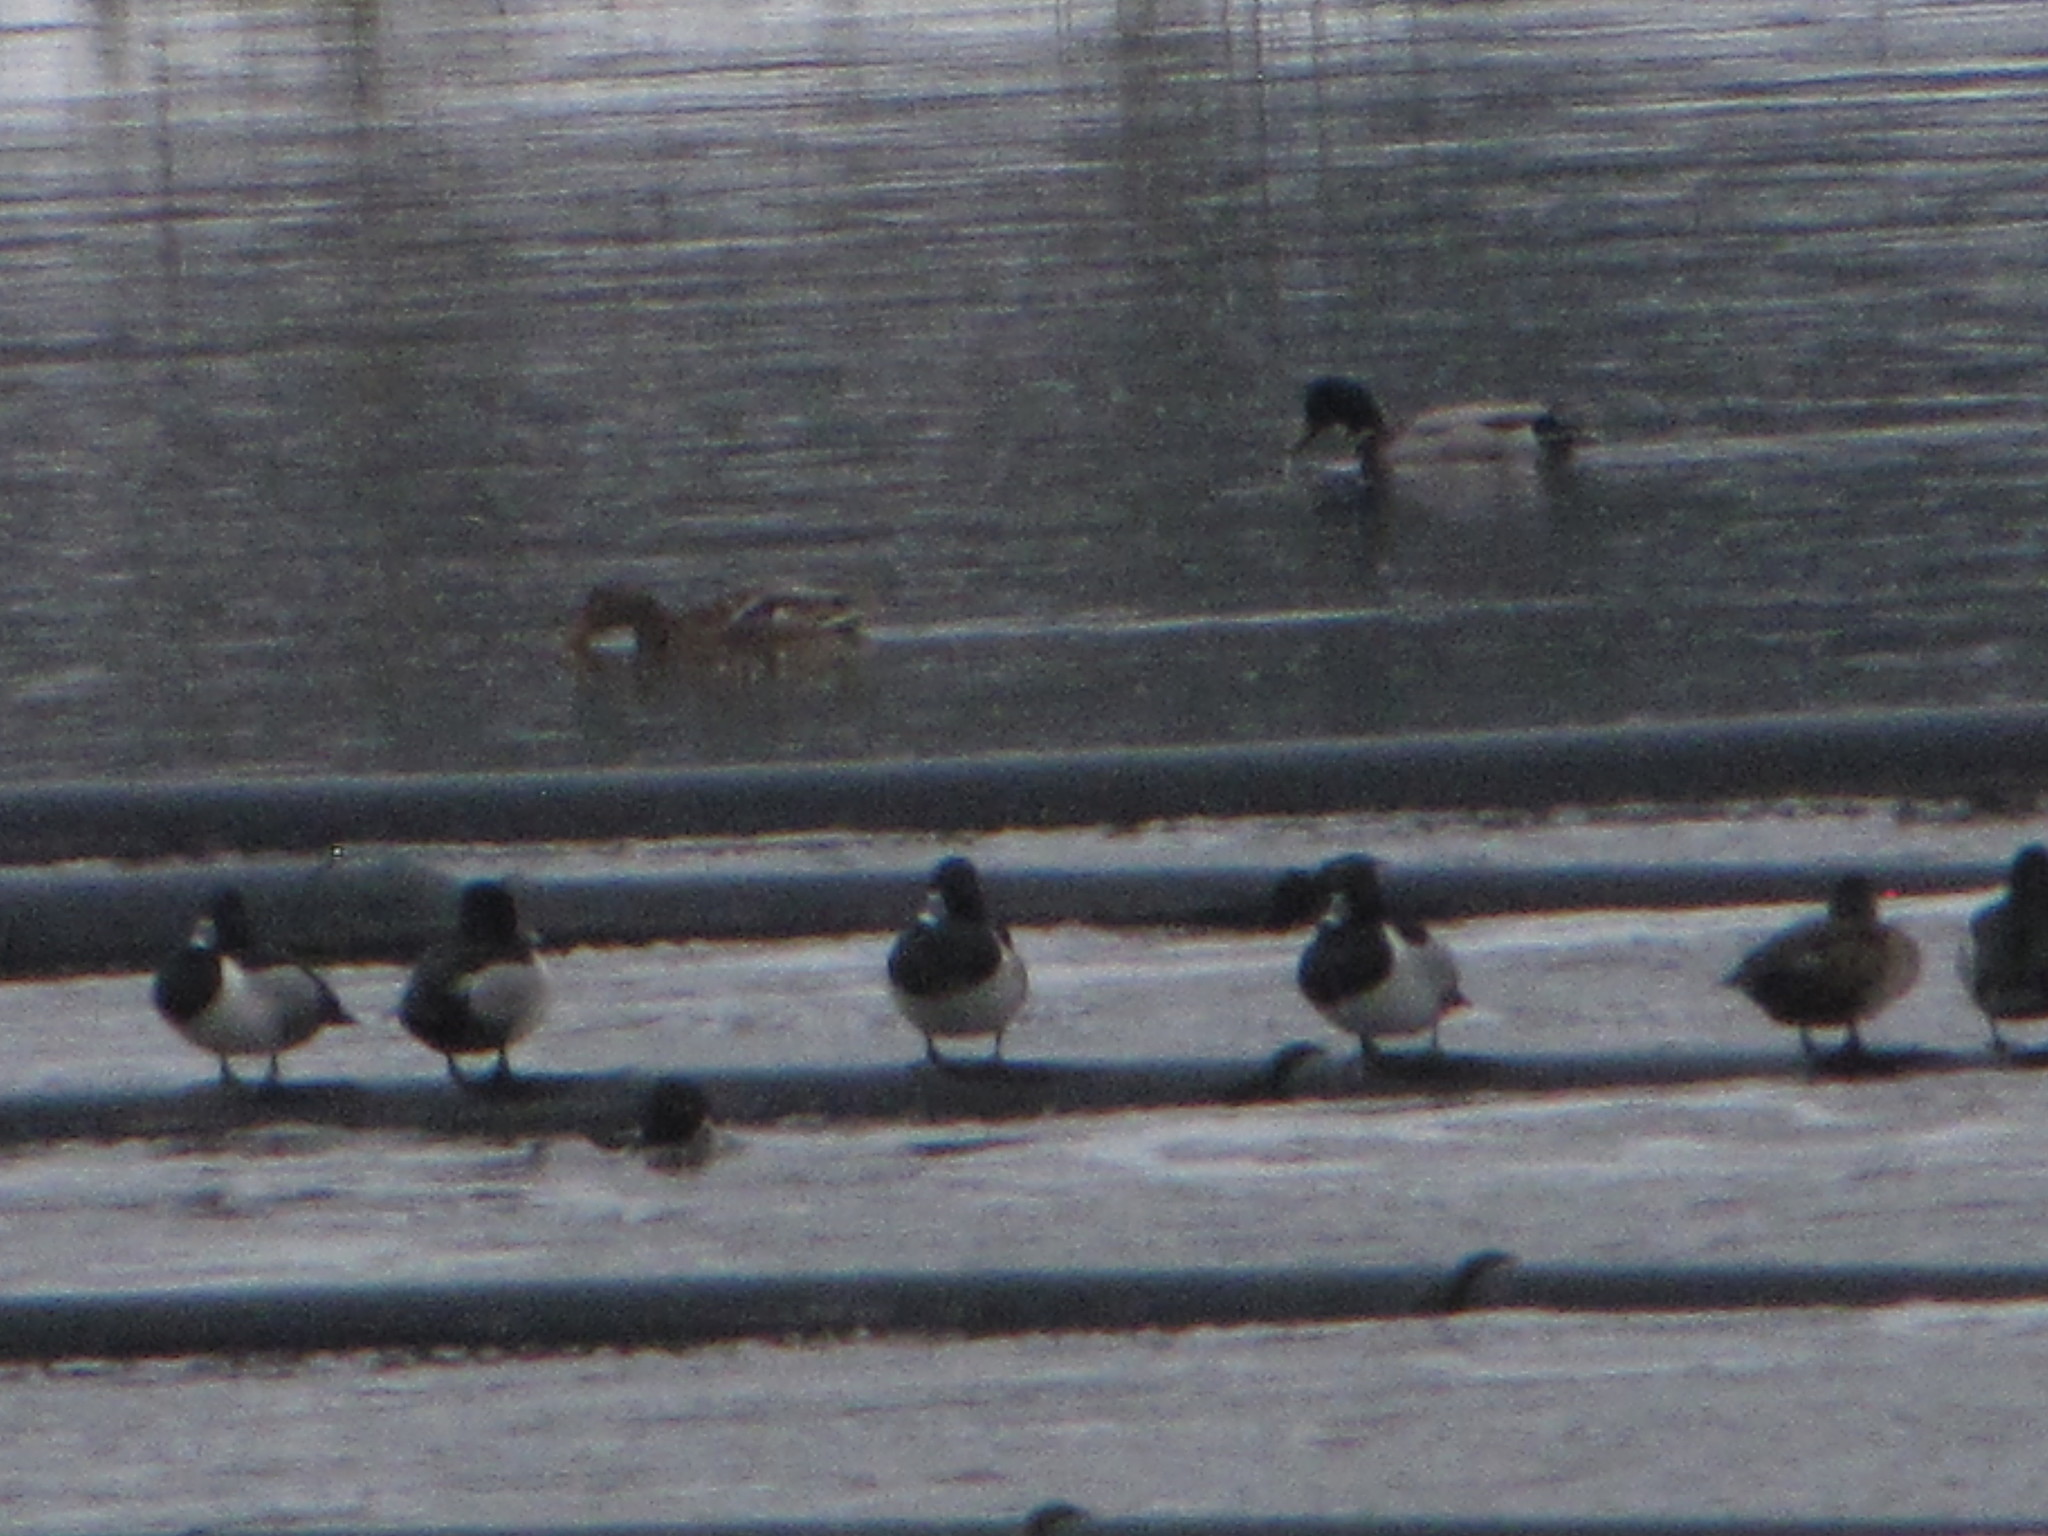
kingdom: Animalia
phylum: Chordata
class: Aves
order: Anseriformes
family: Anatidae
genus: Aythya
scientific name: Aythya collaris
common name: Ring-necked duck
